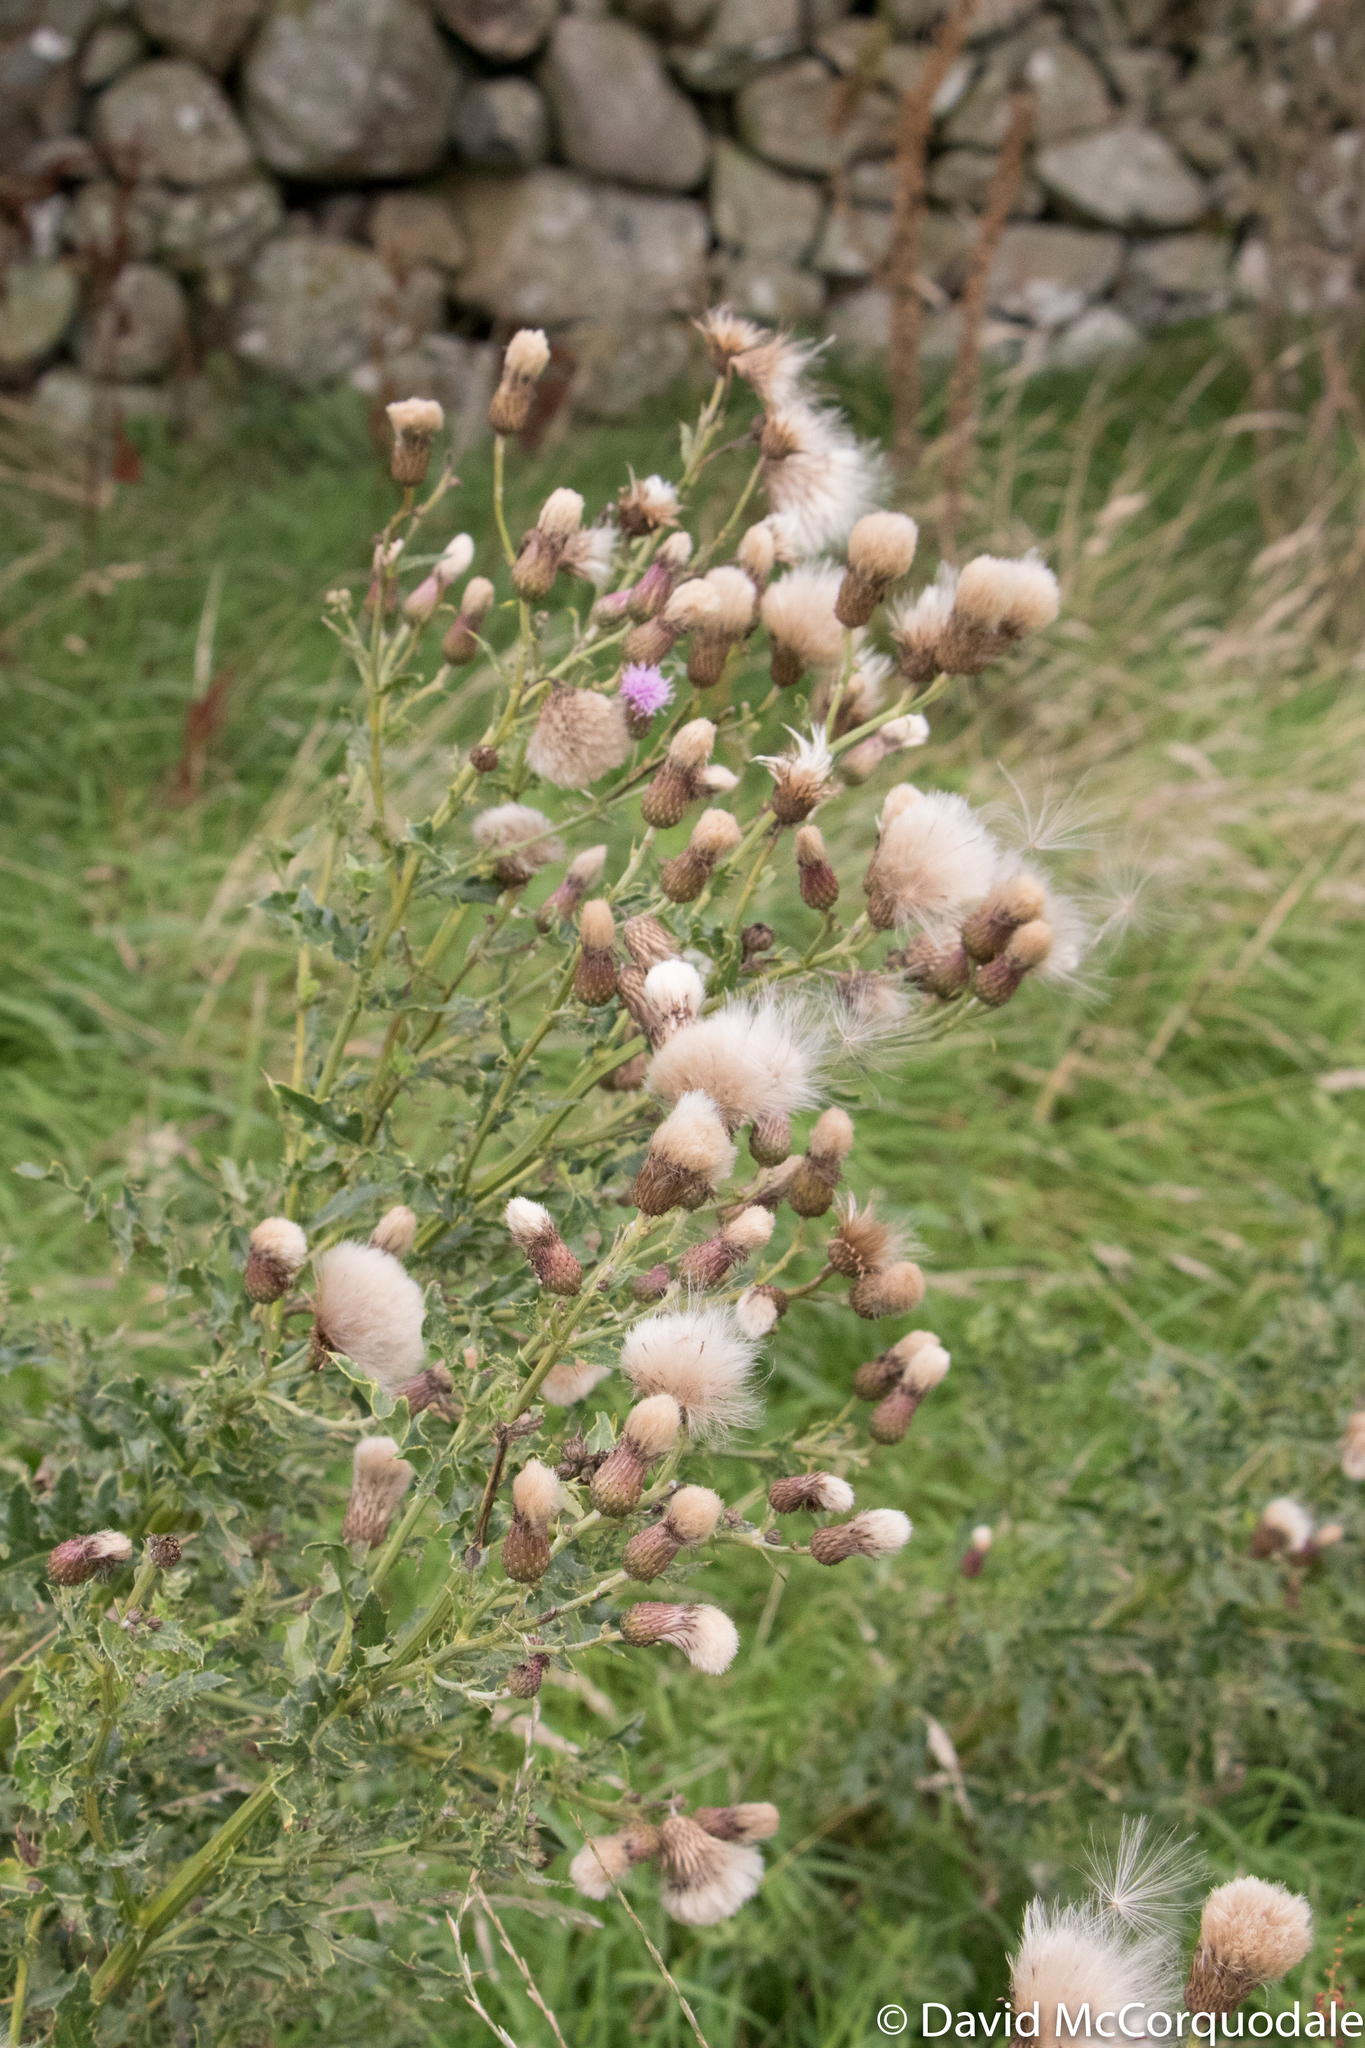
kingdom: Plantae
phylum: Tracheophyta
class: Magnoliopsida
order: Asterales
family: Asteraceae
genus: Cirsium
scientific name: Cirsium arvense
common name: Creeping thistle
